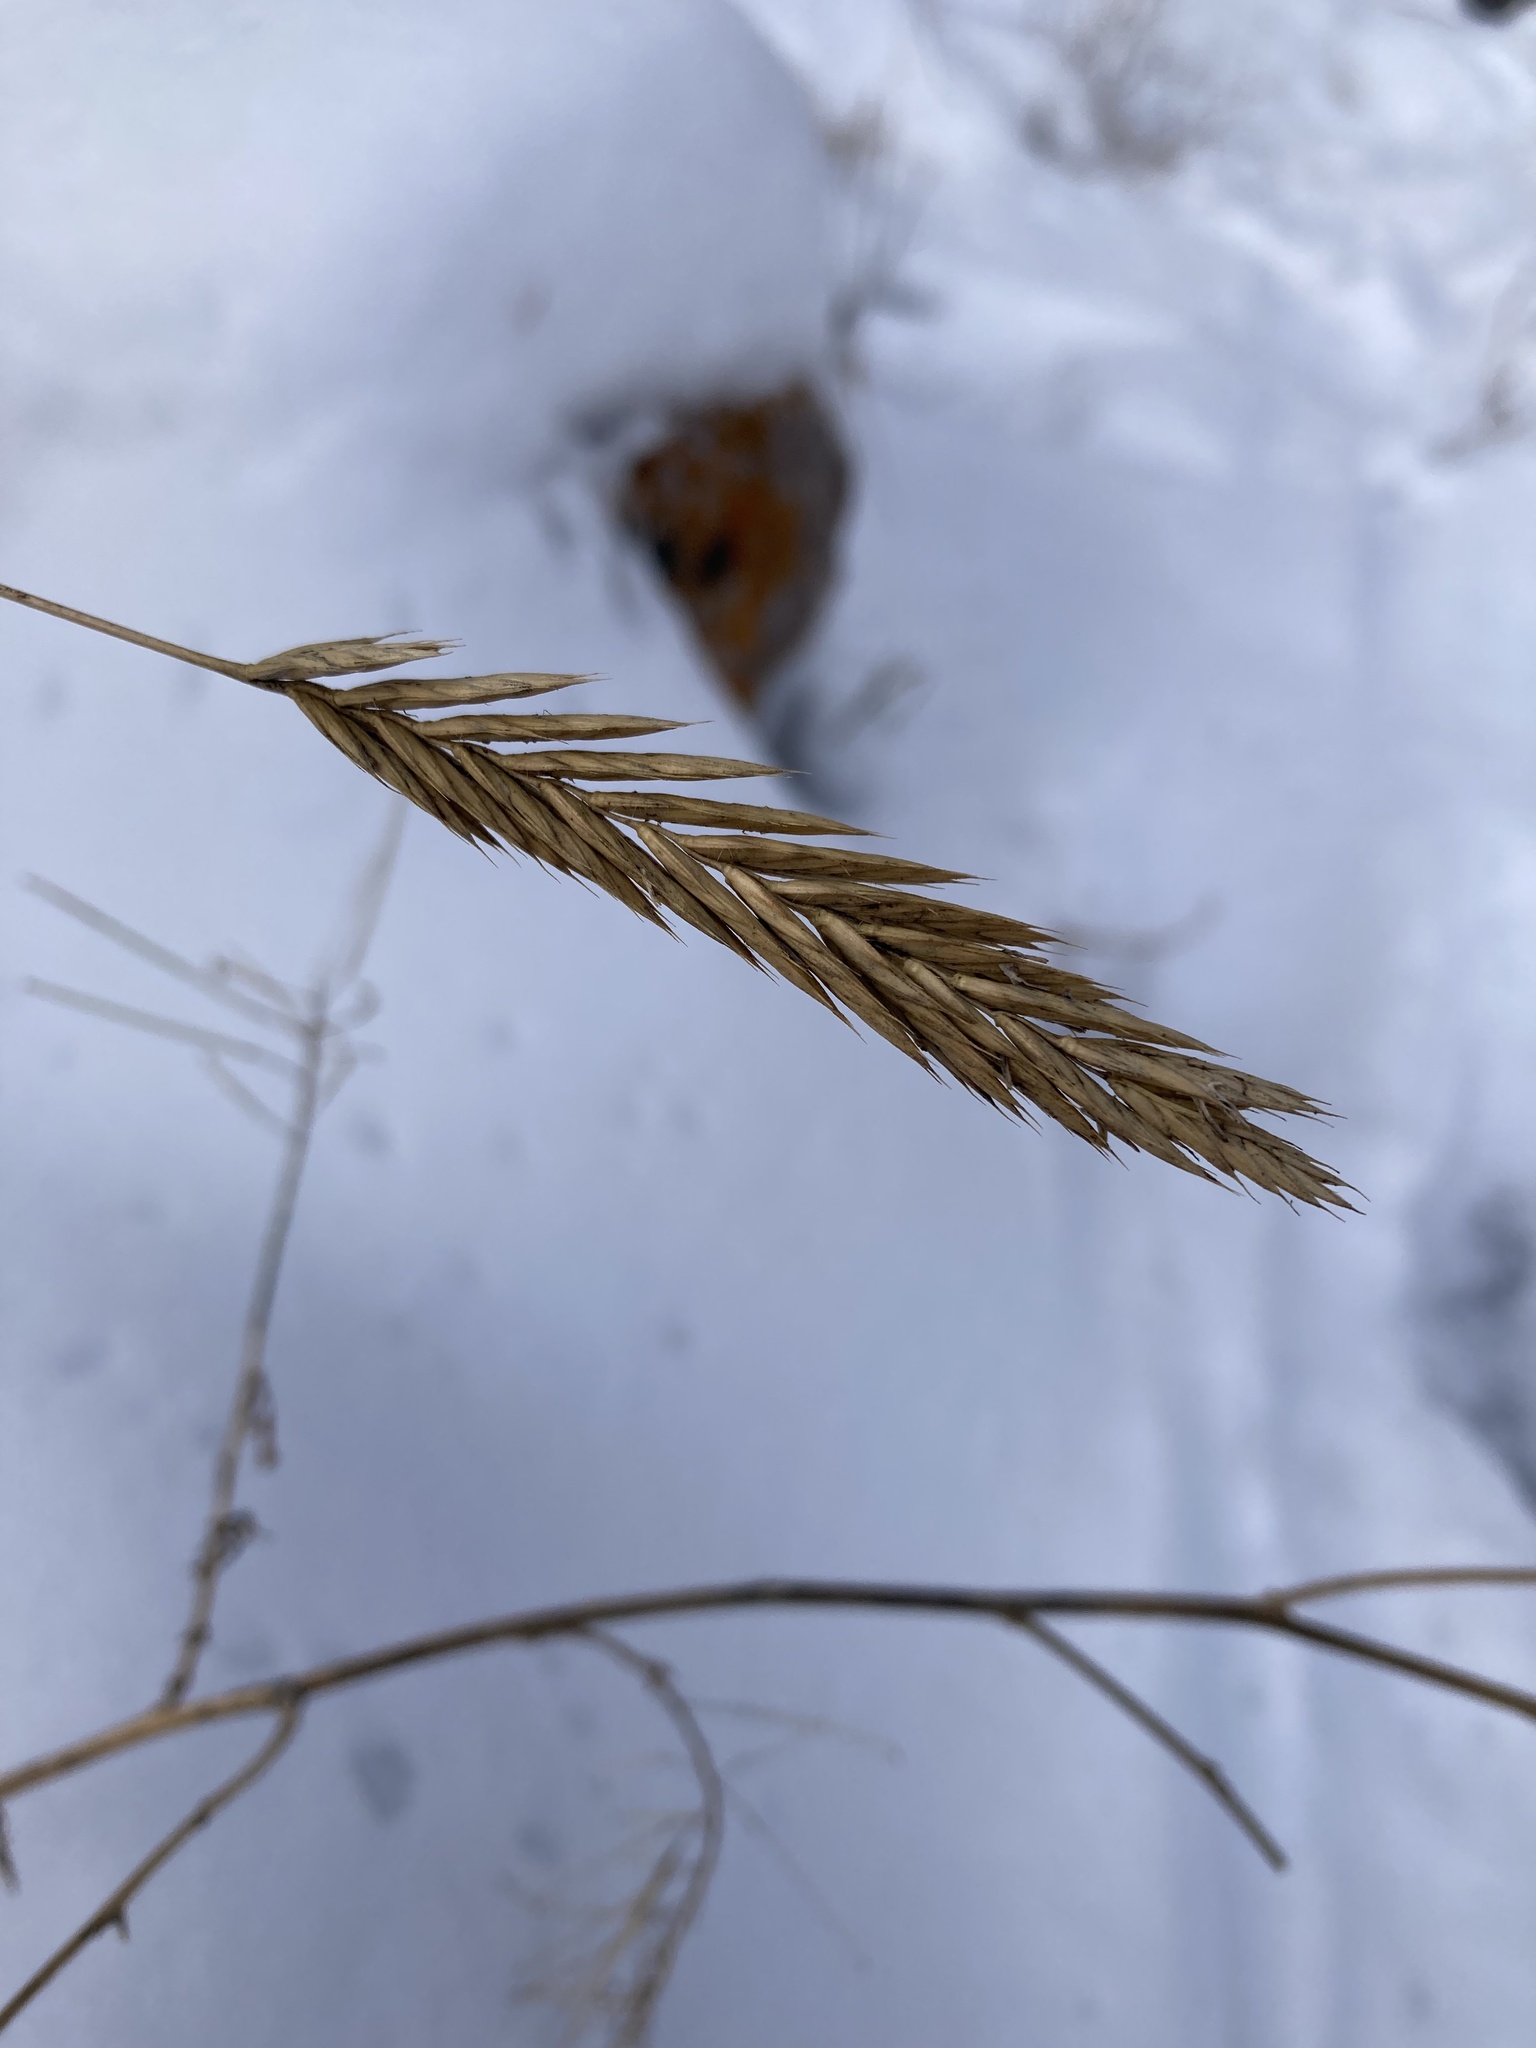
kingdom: Plantae
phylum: Tracheophyta
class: Liliopsida
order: Poales
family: Poaceae
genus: Agropyron
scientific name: Agropyron cristatum
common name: Crested wheatgrass
